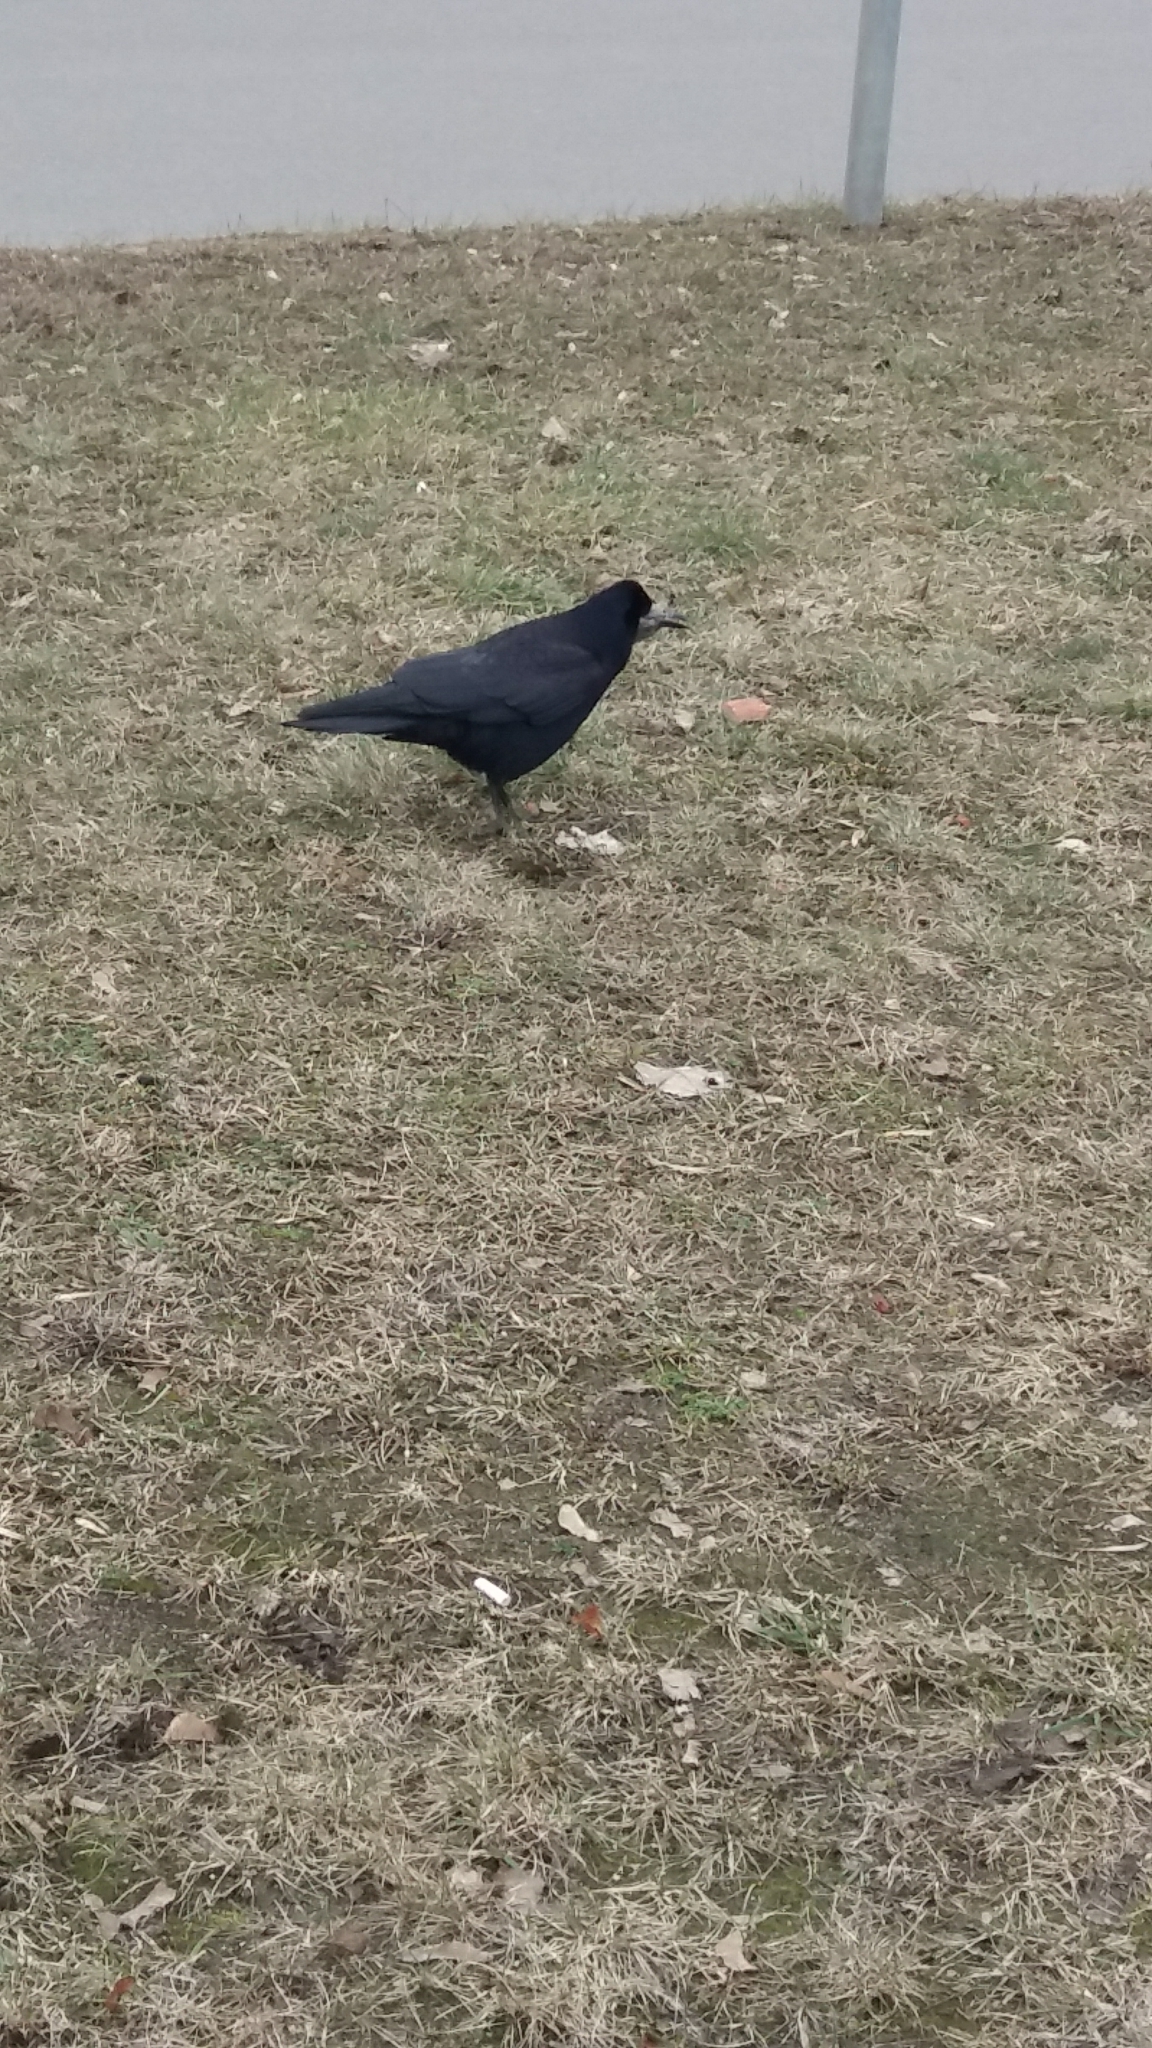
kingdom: Animalia
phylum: Chordata
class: Aves
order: Passeriformes
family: Corvidae
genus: Corvus
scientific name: Corvus frugilegus
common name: Rook
